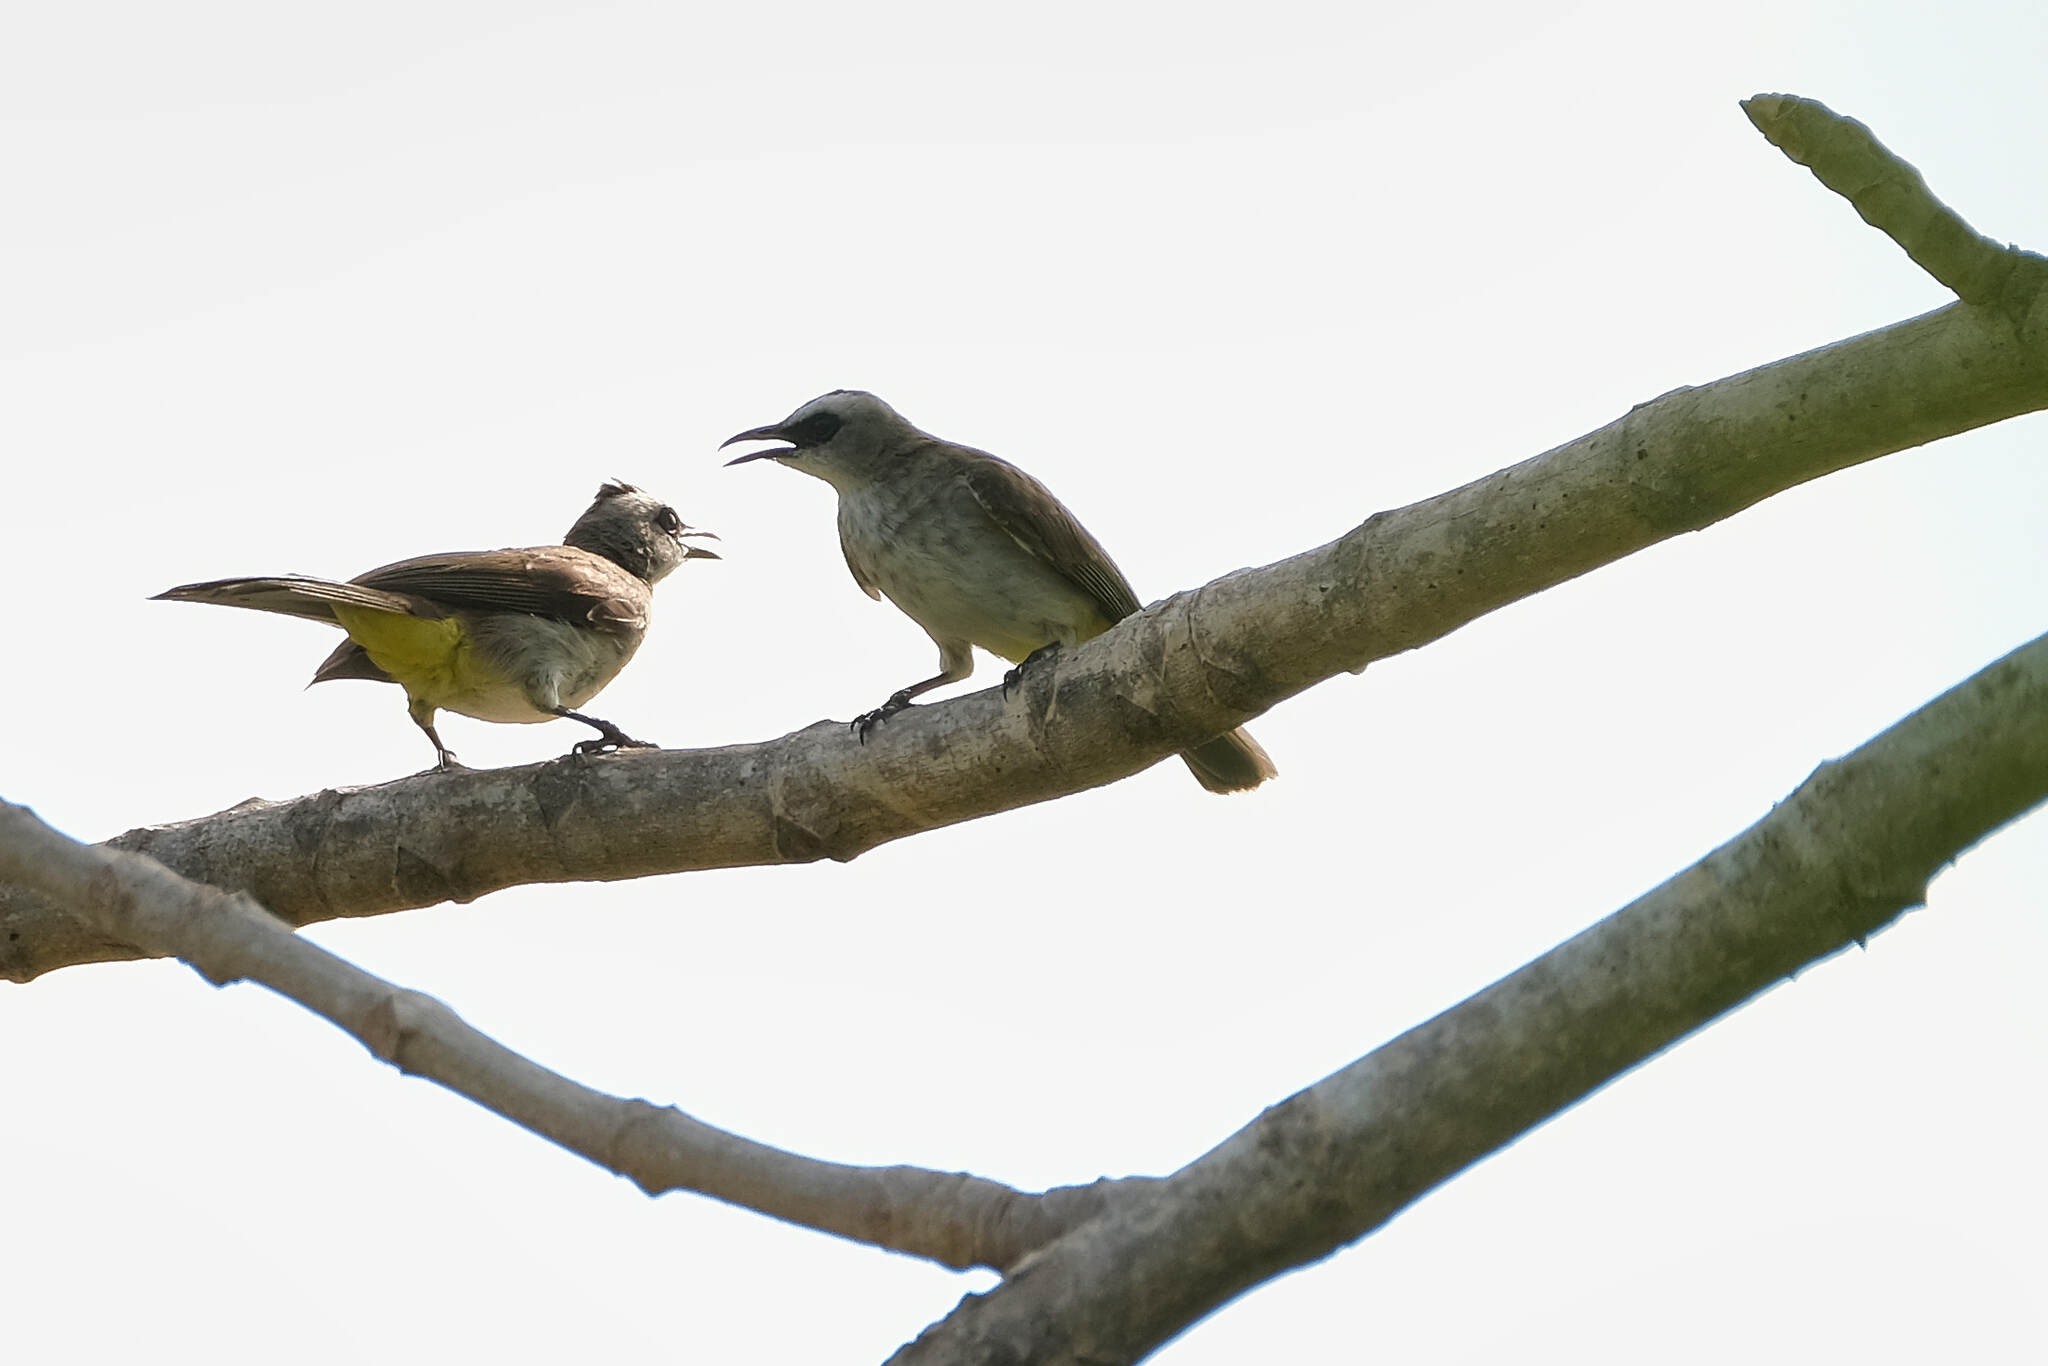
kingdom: Animalia
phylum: Chordata
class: Aves
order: Passeriformes
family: Pycnonotidae
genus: Pycnonotus
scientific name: Pycnonotus goiavier
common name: Yellow-vented bulbul
